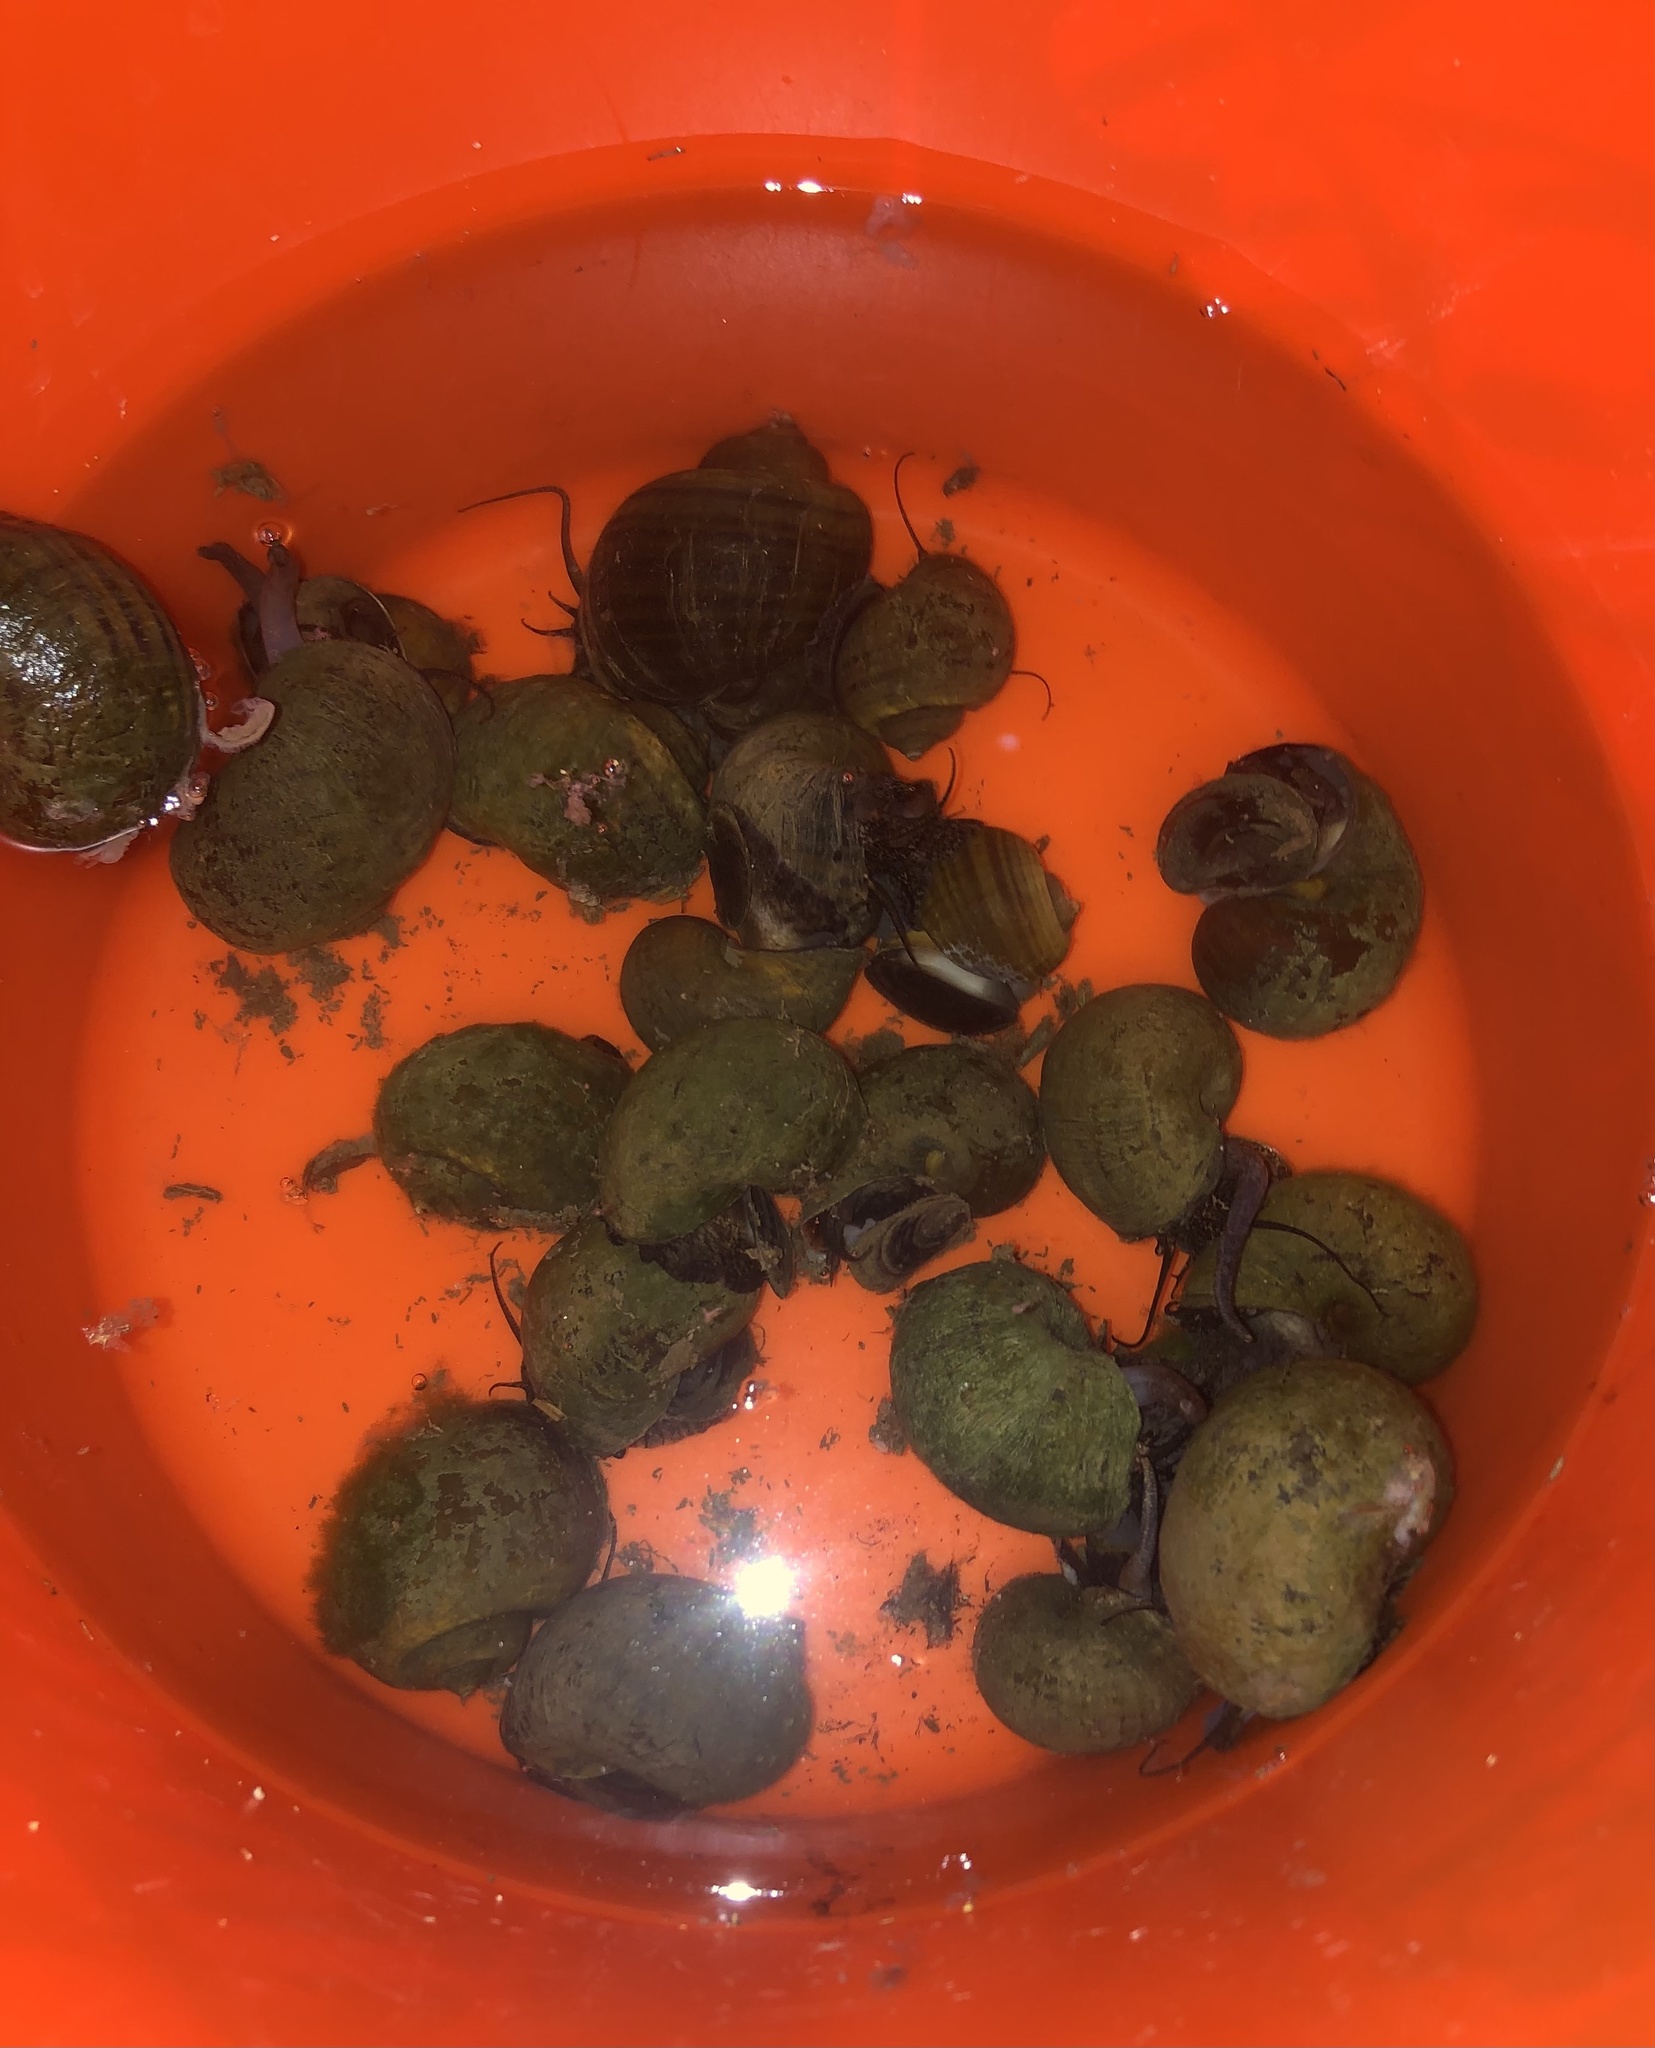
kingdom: Animalia
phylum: Mollusca
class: Gastropoda
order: Architaenioglossa
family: Ampullariidae
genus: Pomacea
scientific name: Pomacea canaliculata
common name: Channeled applesnail
